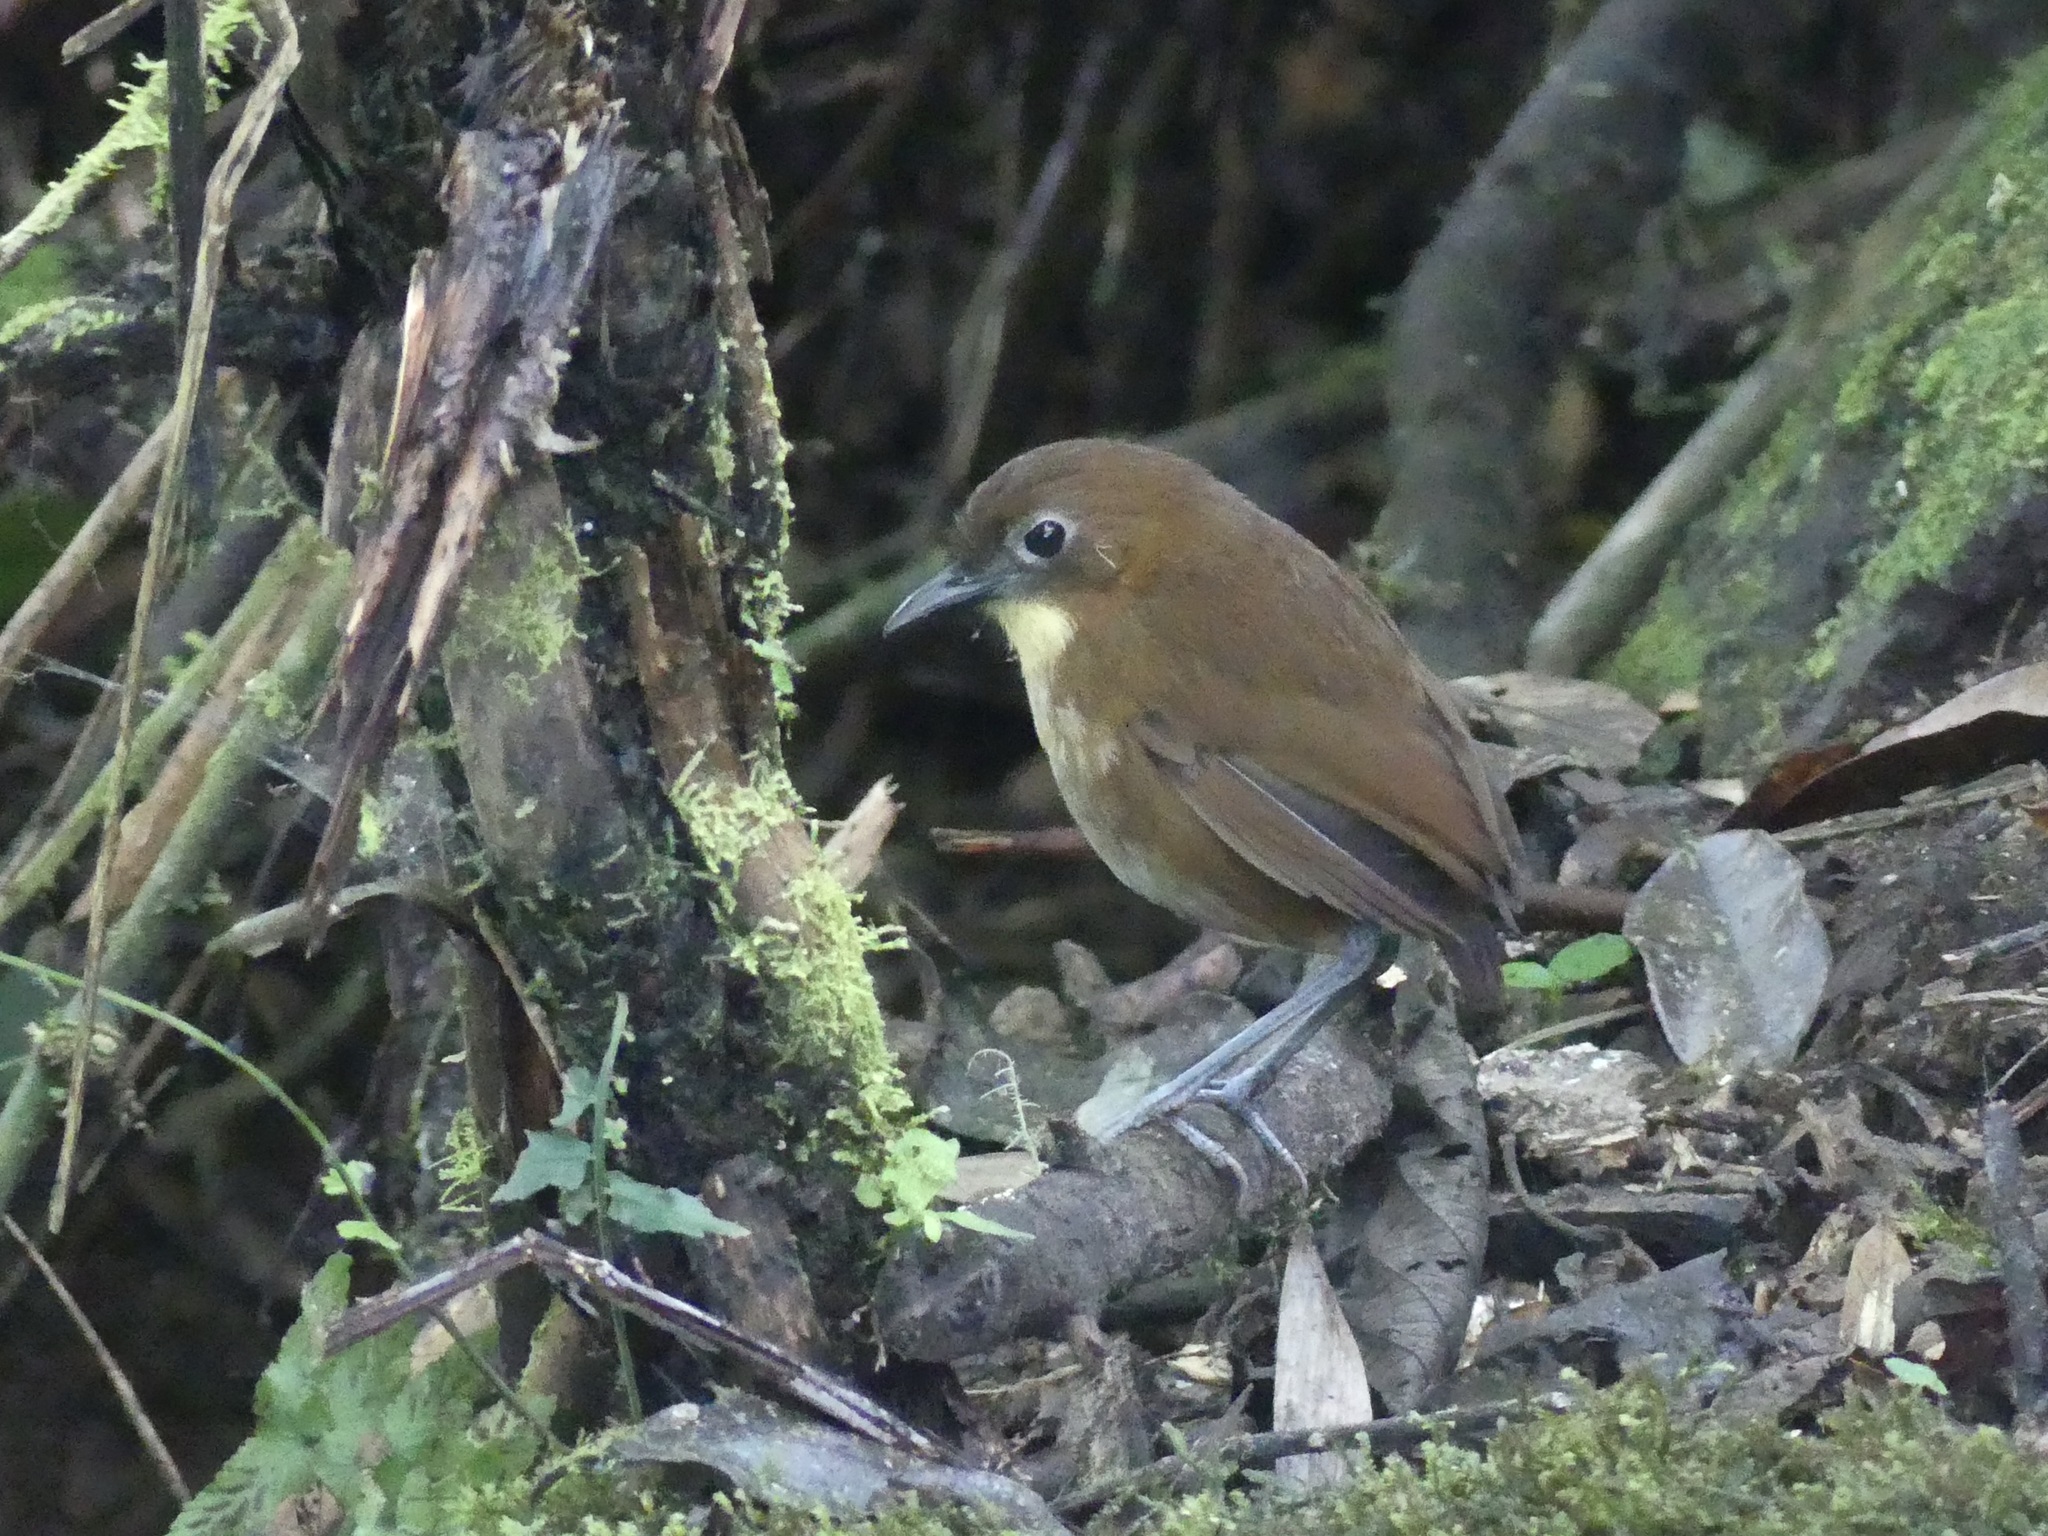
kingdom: Animalia
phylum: Chordata
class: Aves
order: Passeriformes
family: Grallariidae
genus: Grallaria
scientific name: Grallaria flavotincta
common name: Yellow-breasted antpitta
